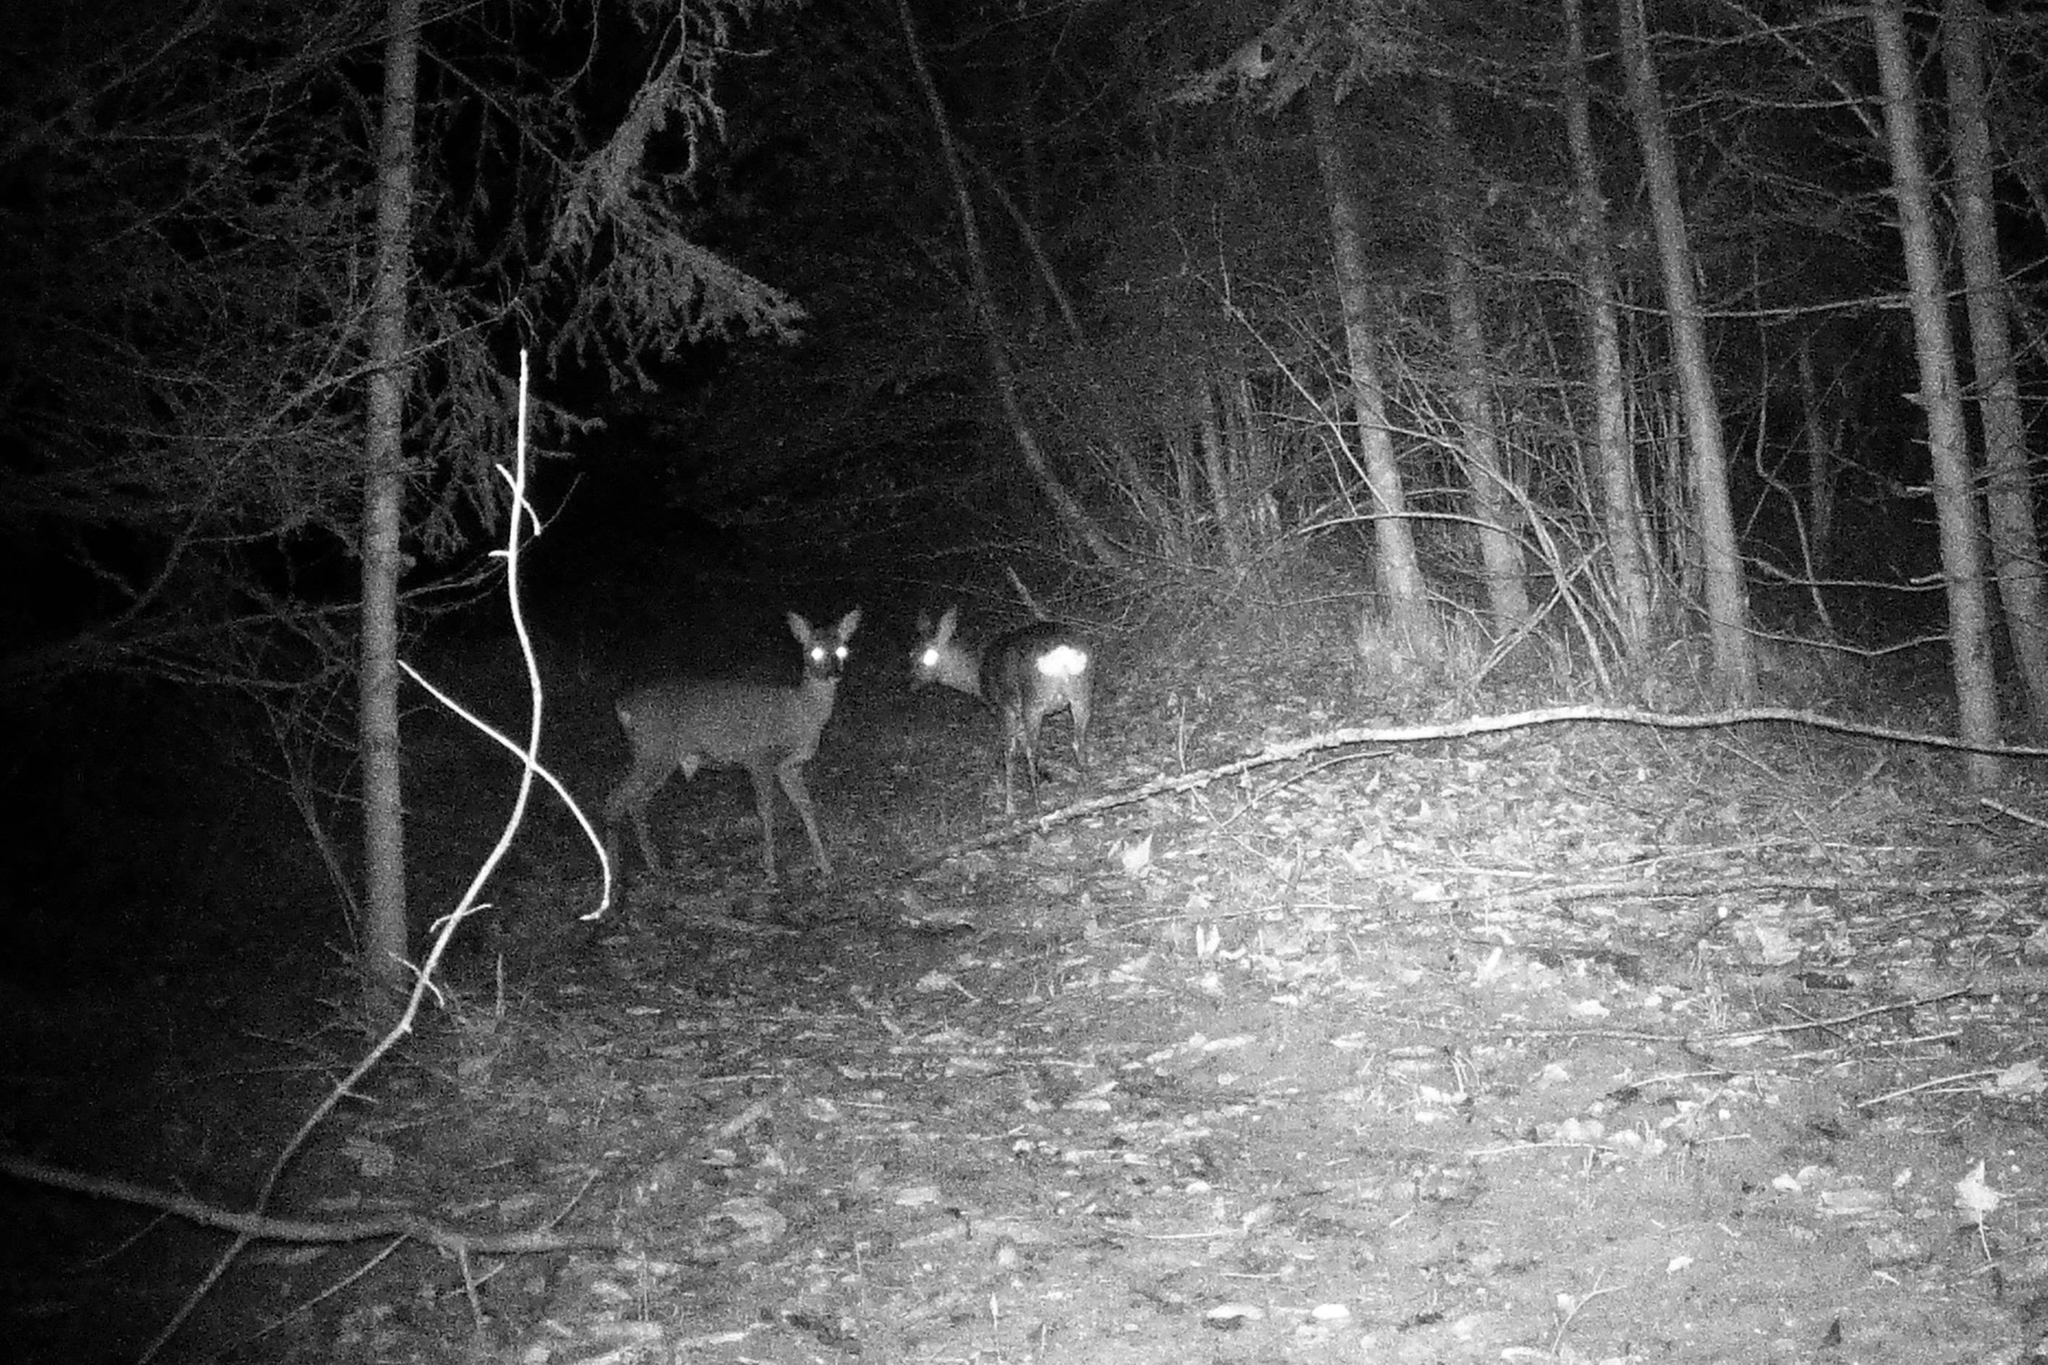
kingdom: Animalia
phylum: Chordata
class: Mammalia
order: Artiodactyla
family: Cervidae
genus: Capreolus
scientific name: Capreolus capreolus
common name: Western roe deer
